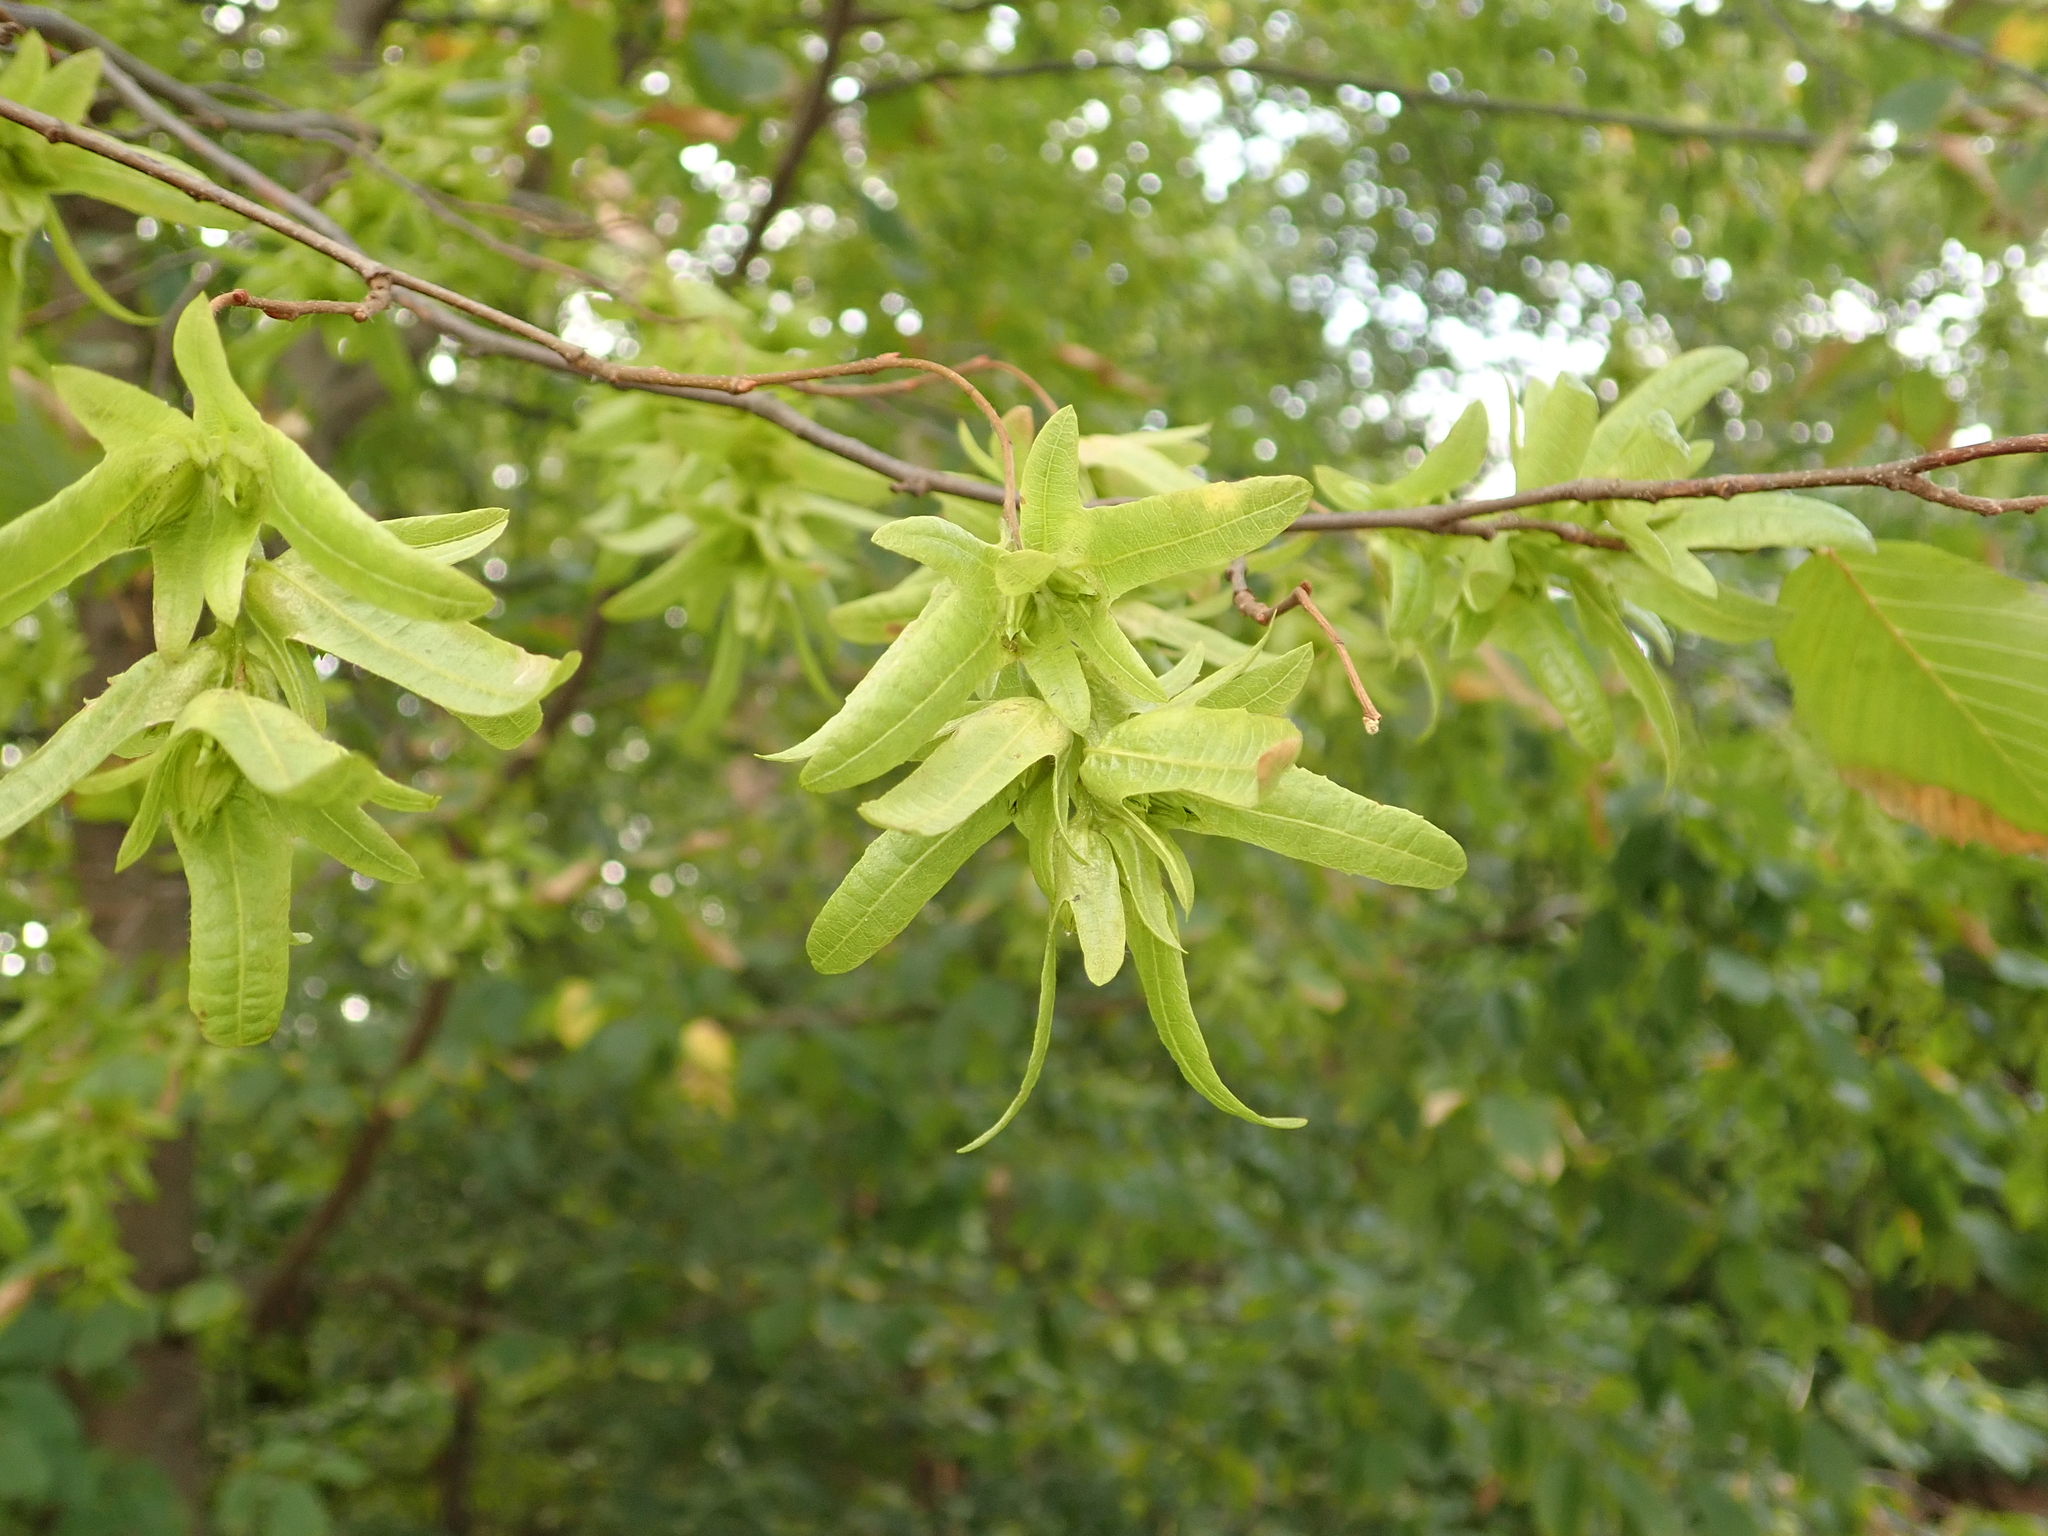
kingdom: Plantae
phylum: Tracheophyta
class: Magnoliopsida
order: Fagales
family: Betulaceae
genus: Carpinus
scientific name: Carpinus betulus
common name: Hornbeam
